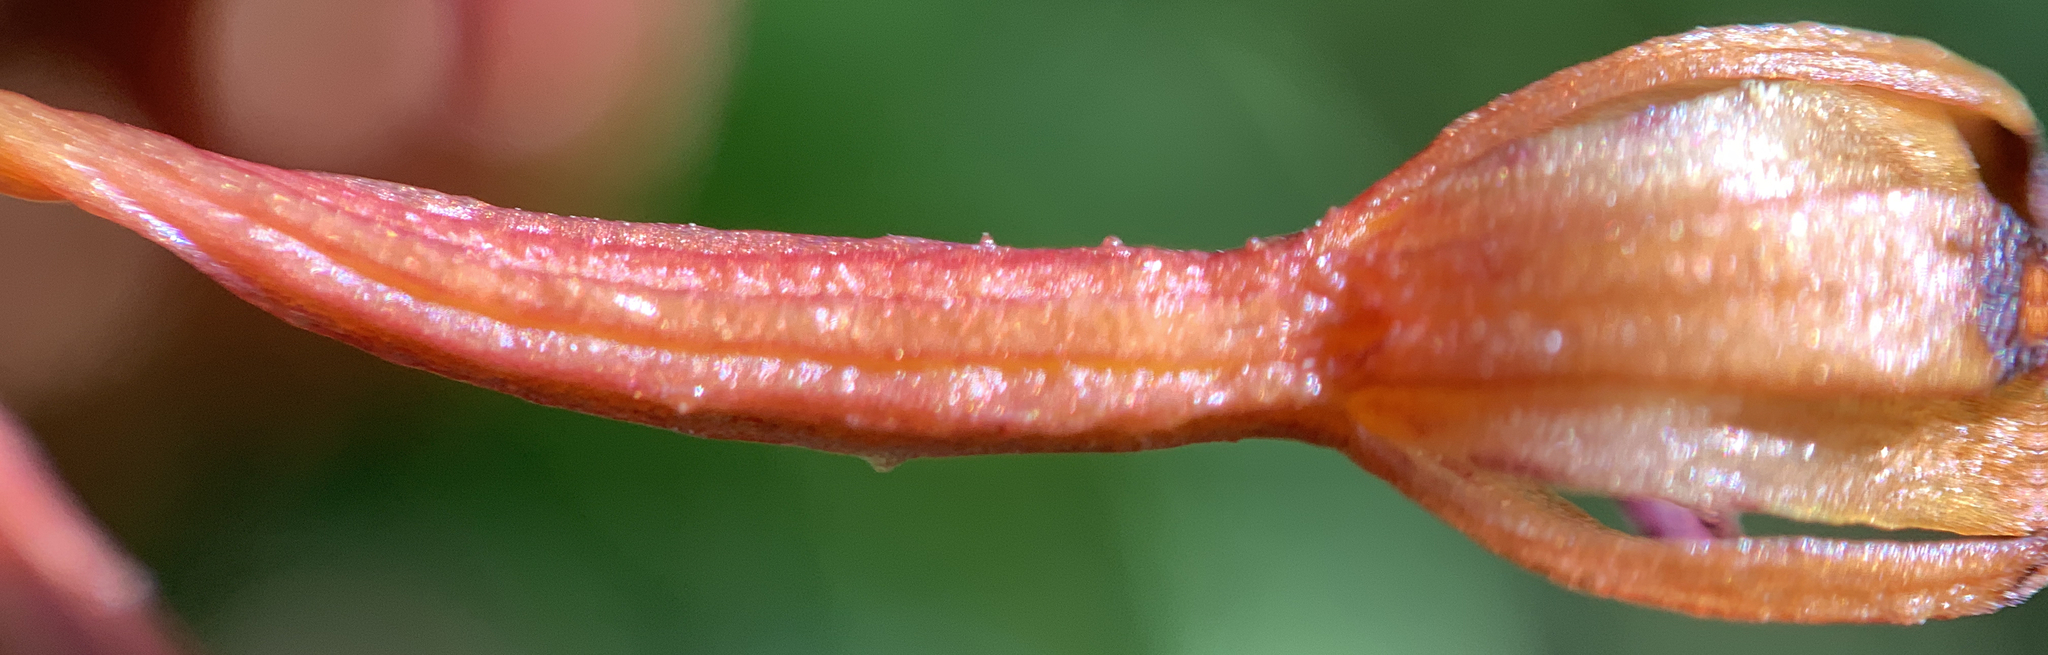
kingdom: Plantae
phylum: Tracheophyta
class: Liliopsida
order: Asparagales
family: Orchidaceae
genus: Corallorhiza
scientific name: Corallorhiza maculata
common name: Spotted coralroot
